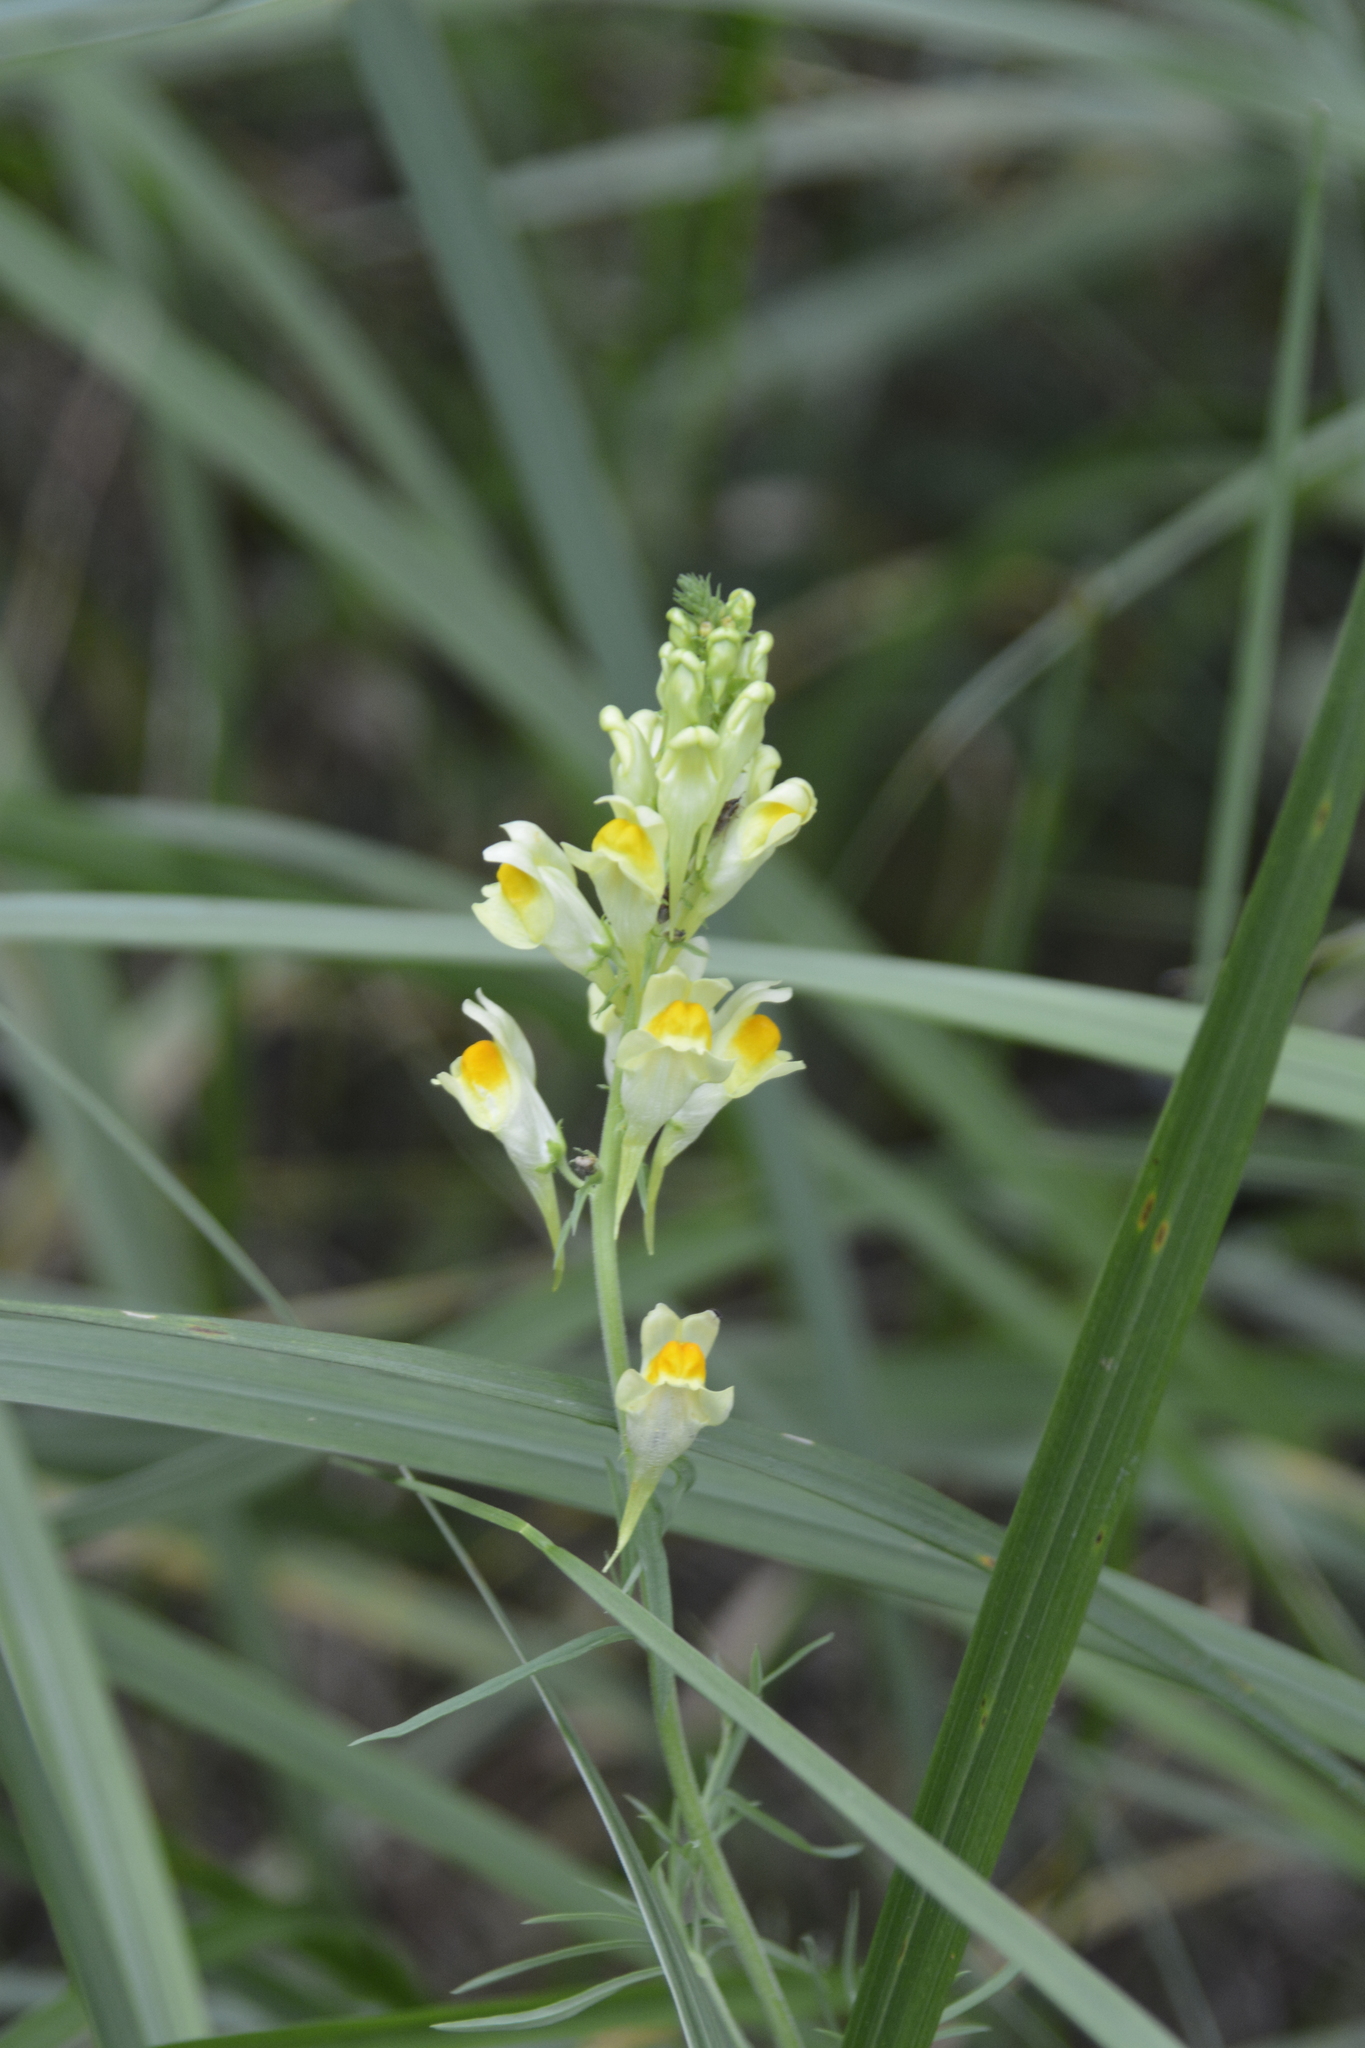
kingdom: Plantae
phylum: Tracheophyta
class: Magnoliopsida
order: Lamiales
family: Plantaginaceae
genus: Linaria
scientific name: Linaria vulgaris
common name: Butter and eggs
